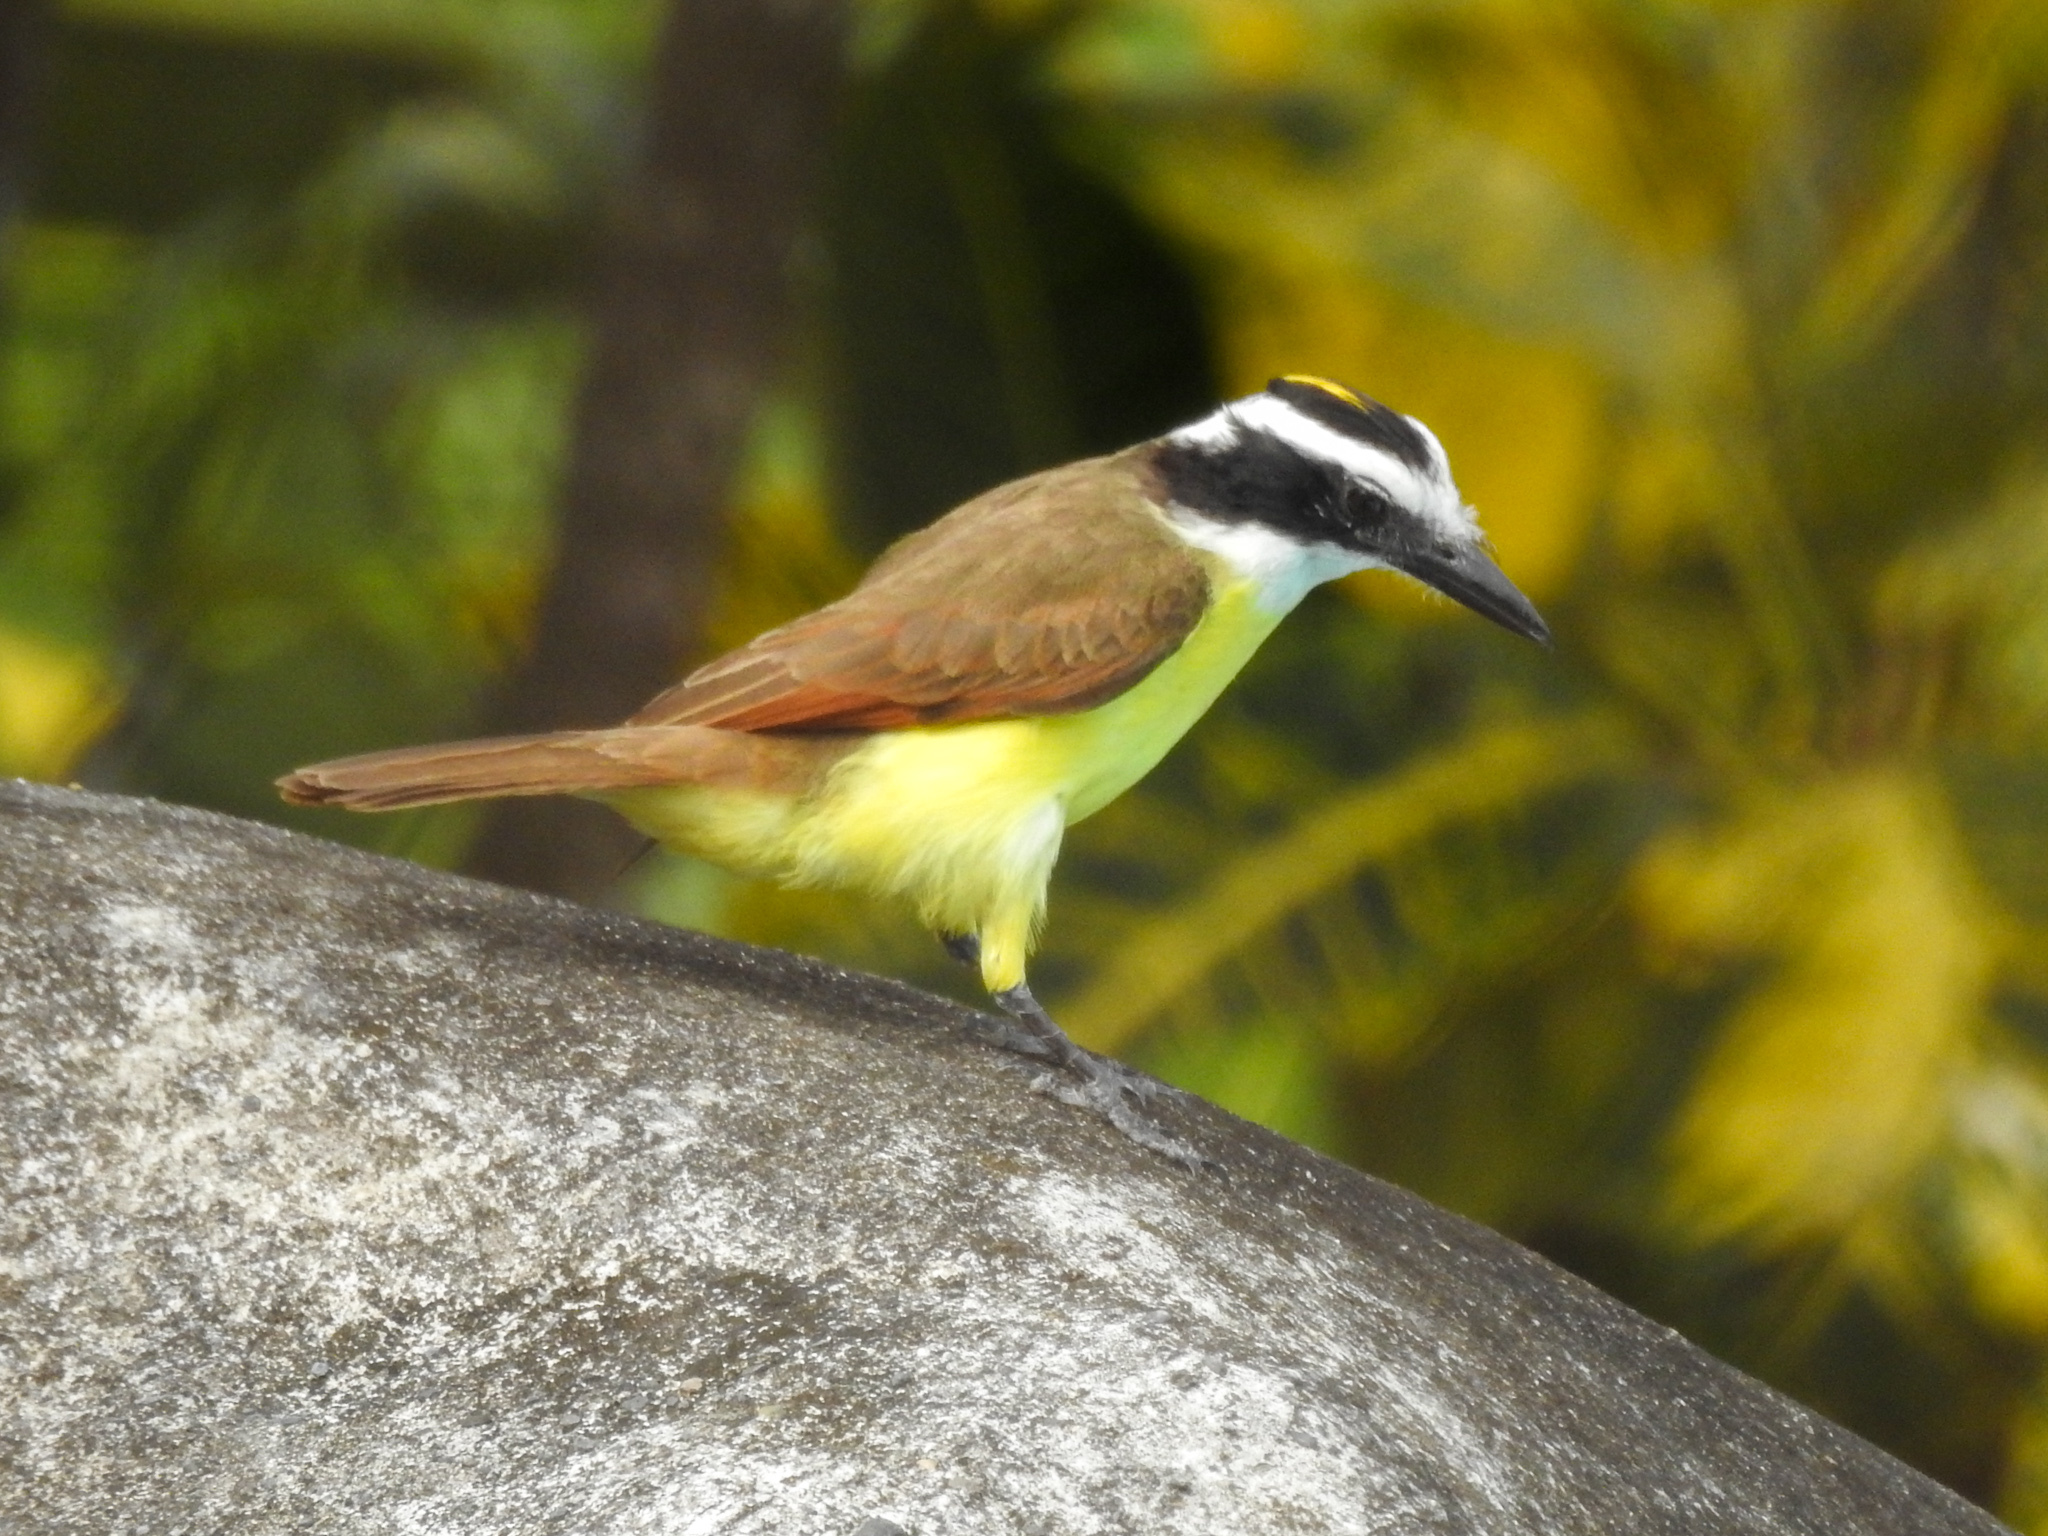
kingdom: Animalia
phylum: Chordata
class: Aves
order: Passeriformes
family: Tyrannidae
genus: Pitangus
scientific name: Pitangus sulphuratus
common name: Great kiskadee
